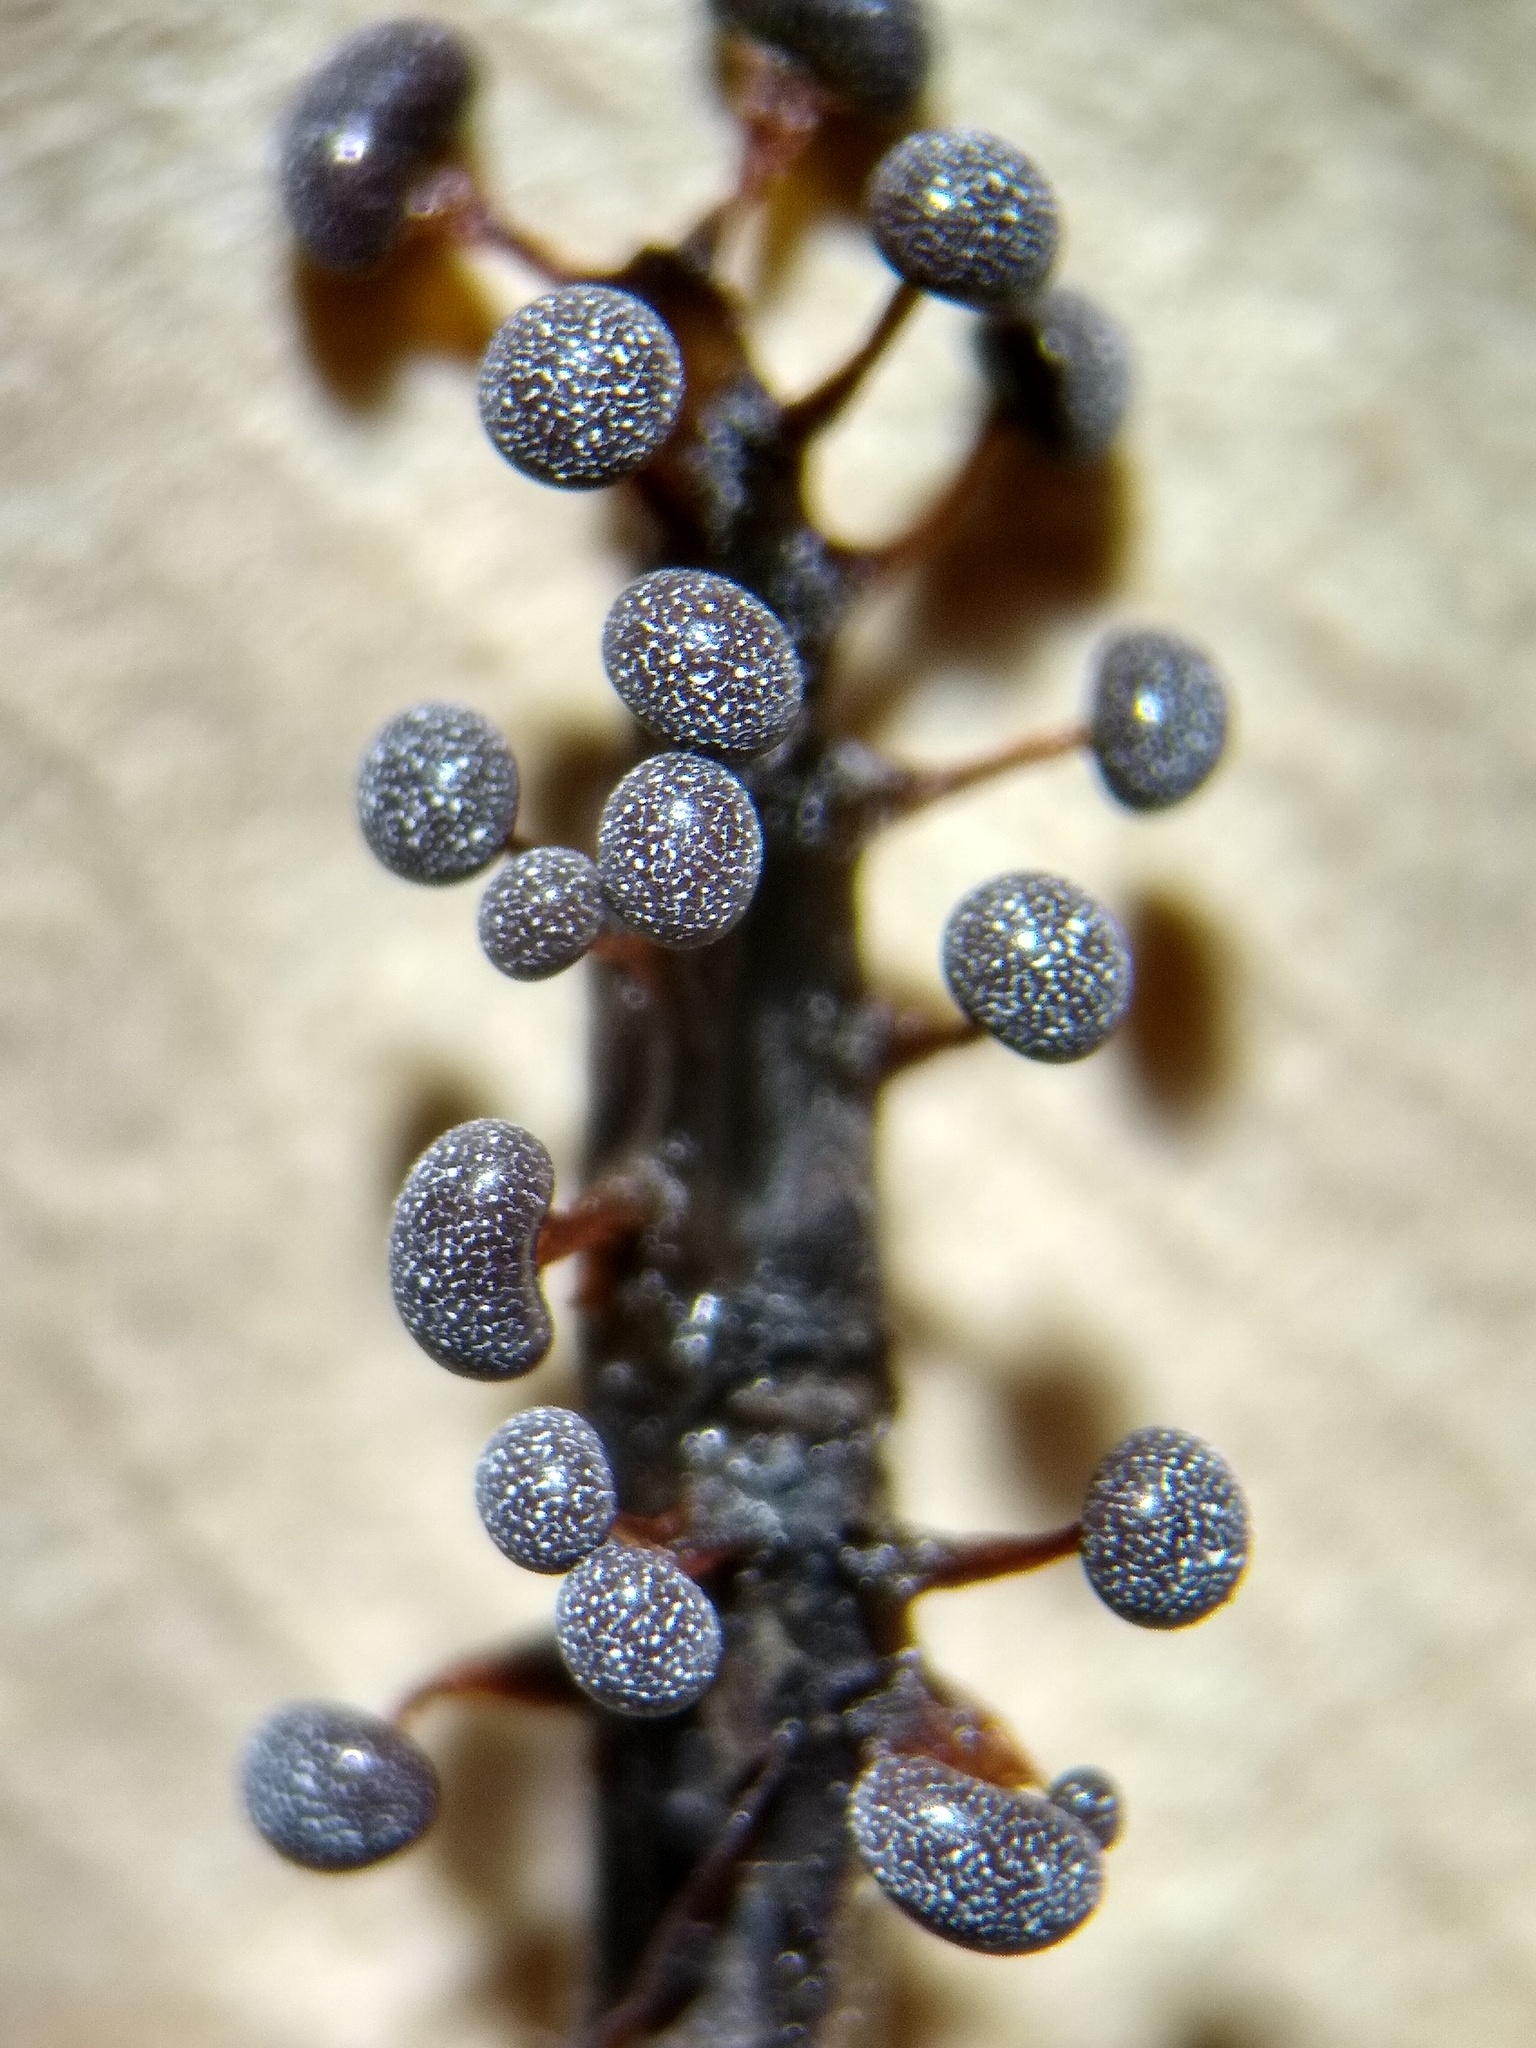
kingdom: Protozoa
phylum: Mycetozoa
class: Myxomycetes
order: Physarales
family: Physaraceae
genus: Physarum
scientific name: Physarum pusillum
